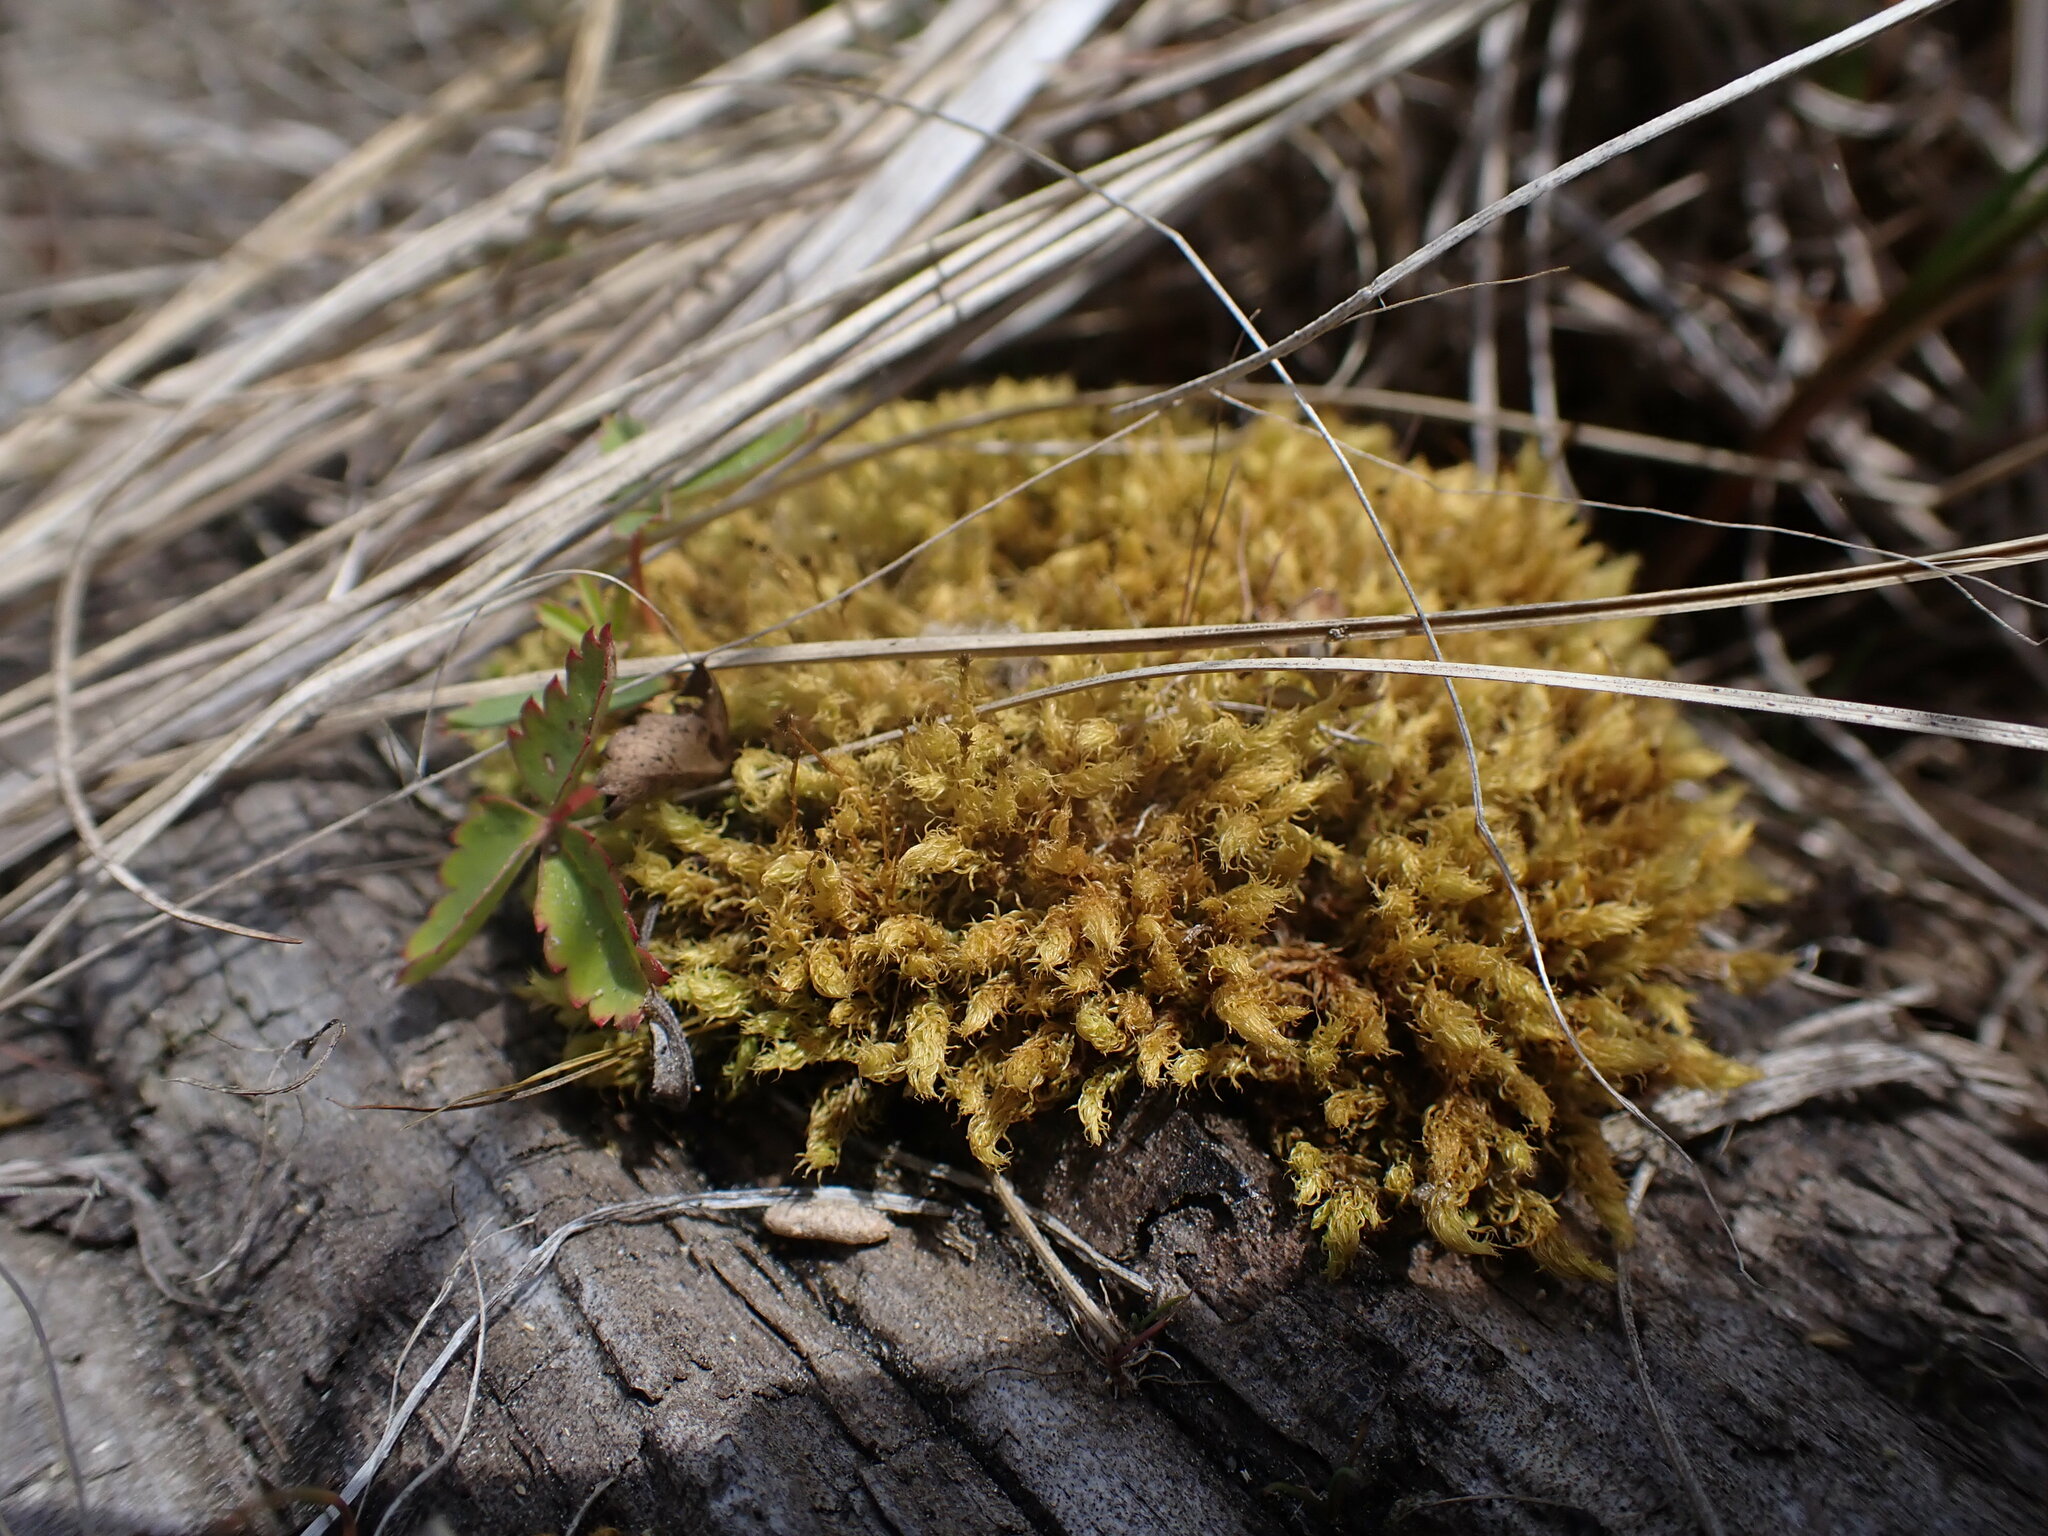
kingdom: Plantae
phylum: Bryophyta
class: Bryopsida
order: Aulacomniales
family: Aulacomniaceae
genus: Aulacomnium
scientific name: Aulacomnium palustre
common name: Bog groove-moss
